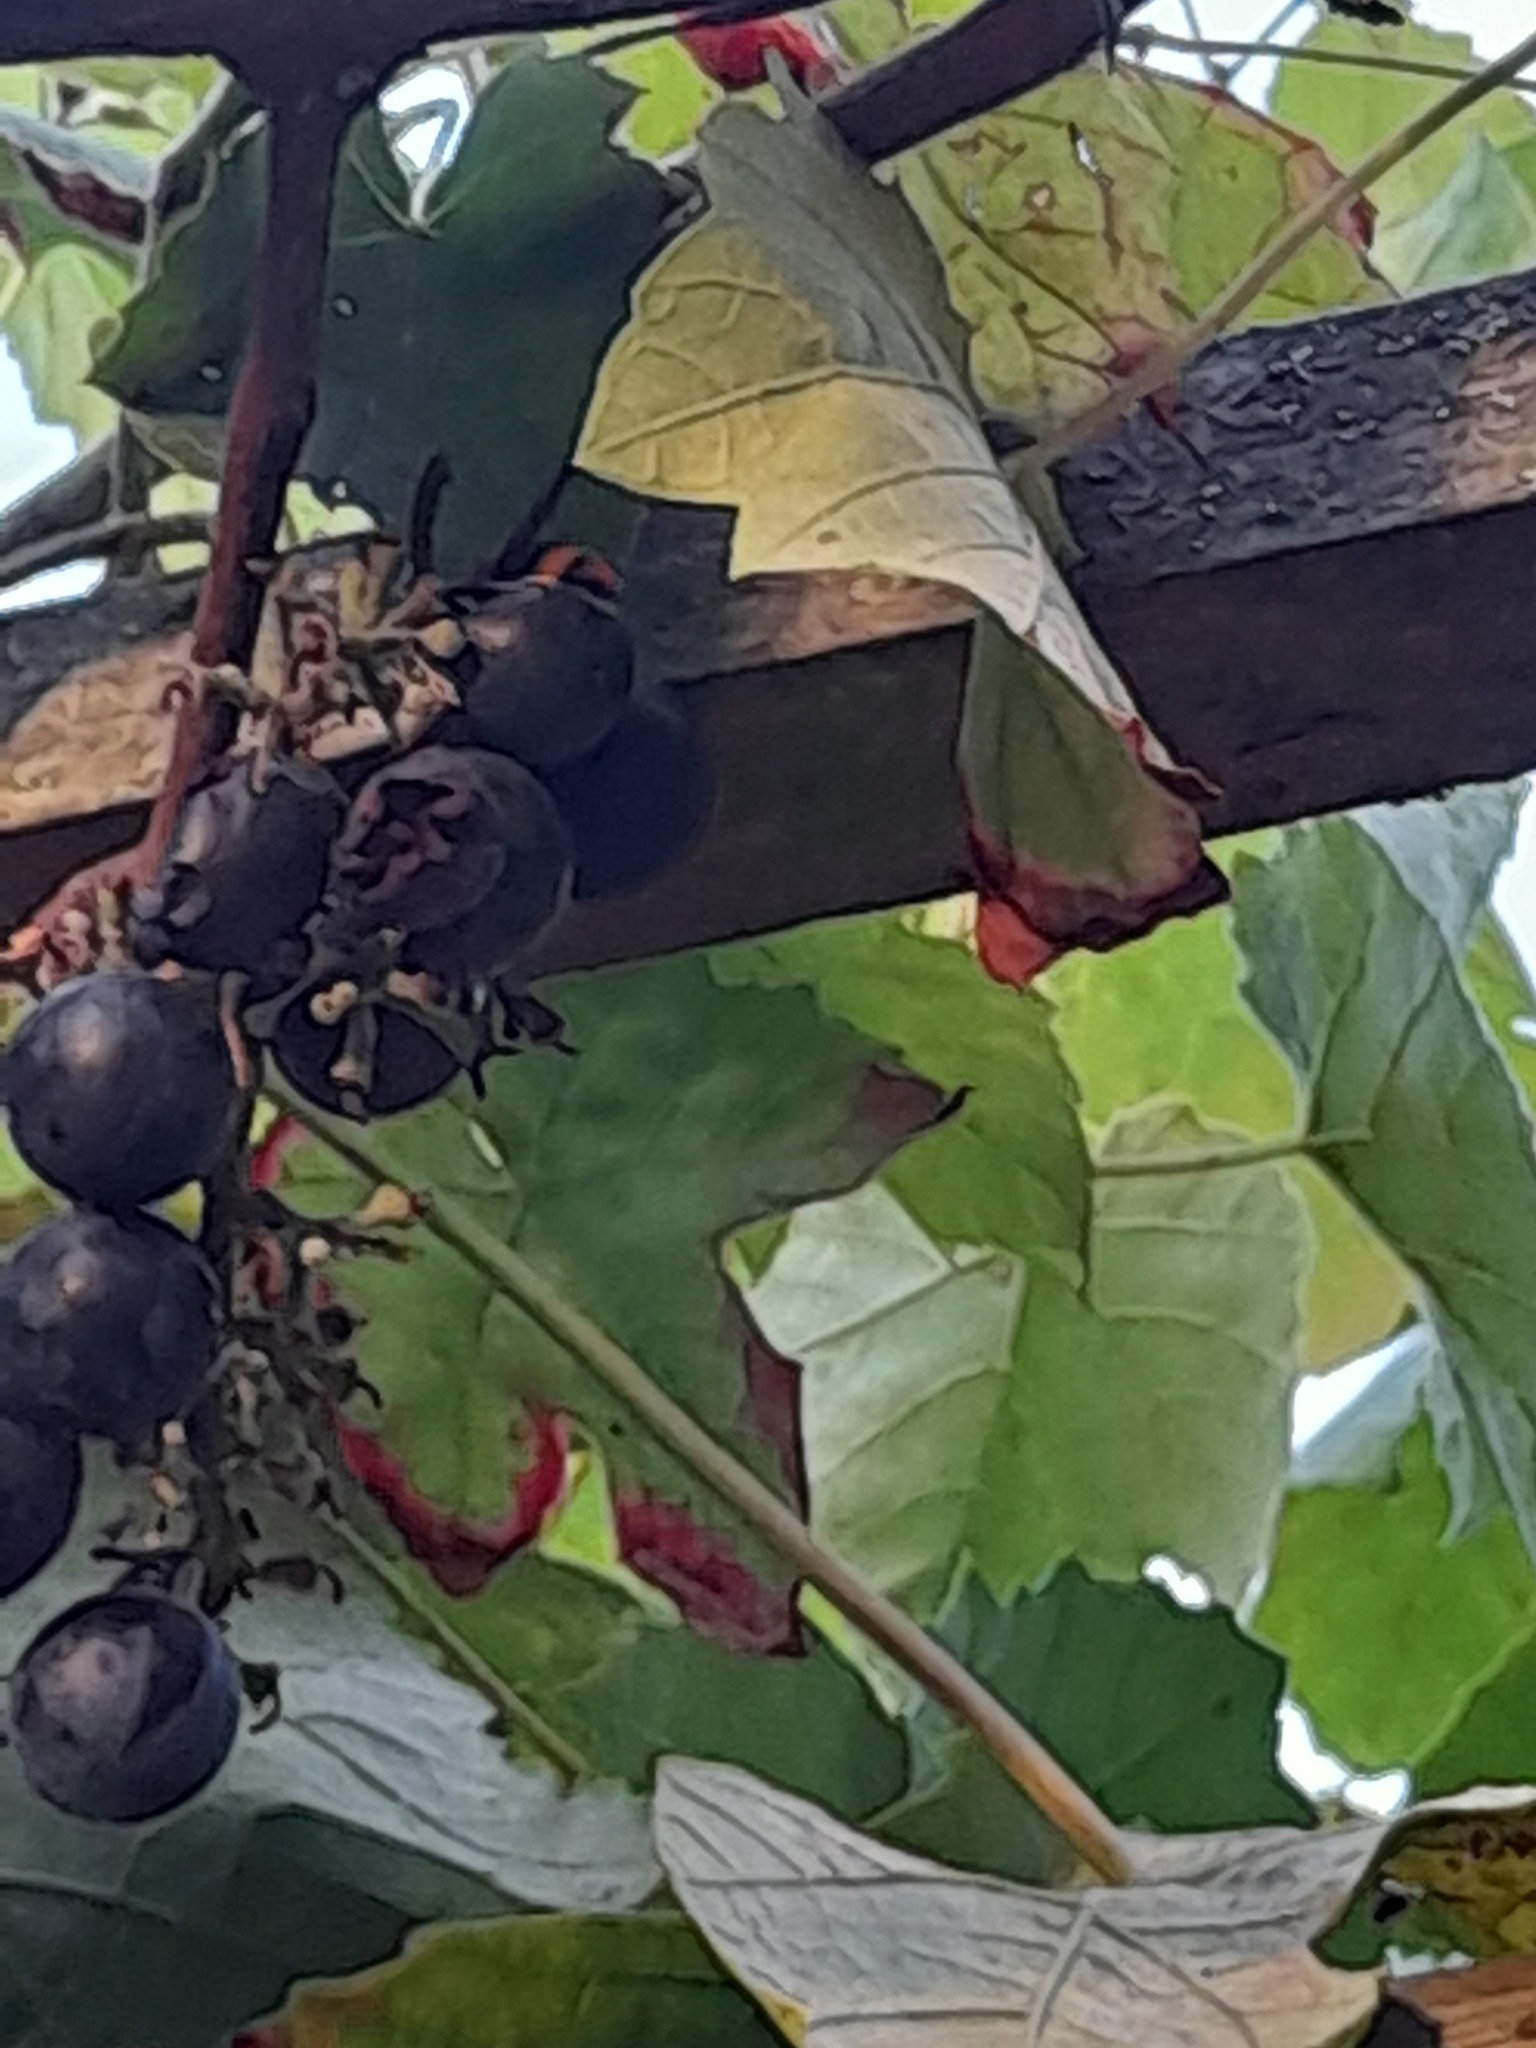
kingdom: Animalia
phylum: Arthropoda
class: Insecta
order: Hymenoptera
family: Vespidae
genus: Vespa
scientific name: Vespa velutina
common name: Asian hornet
